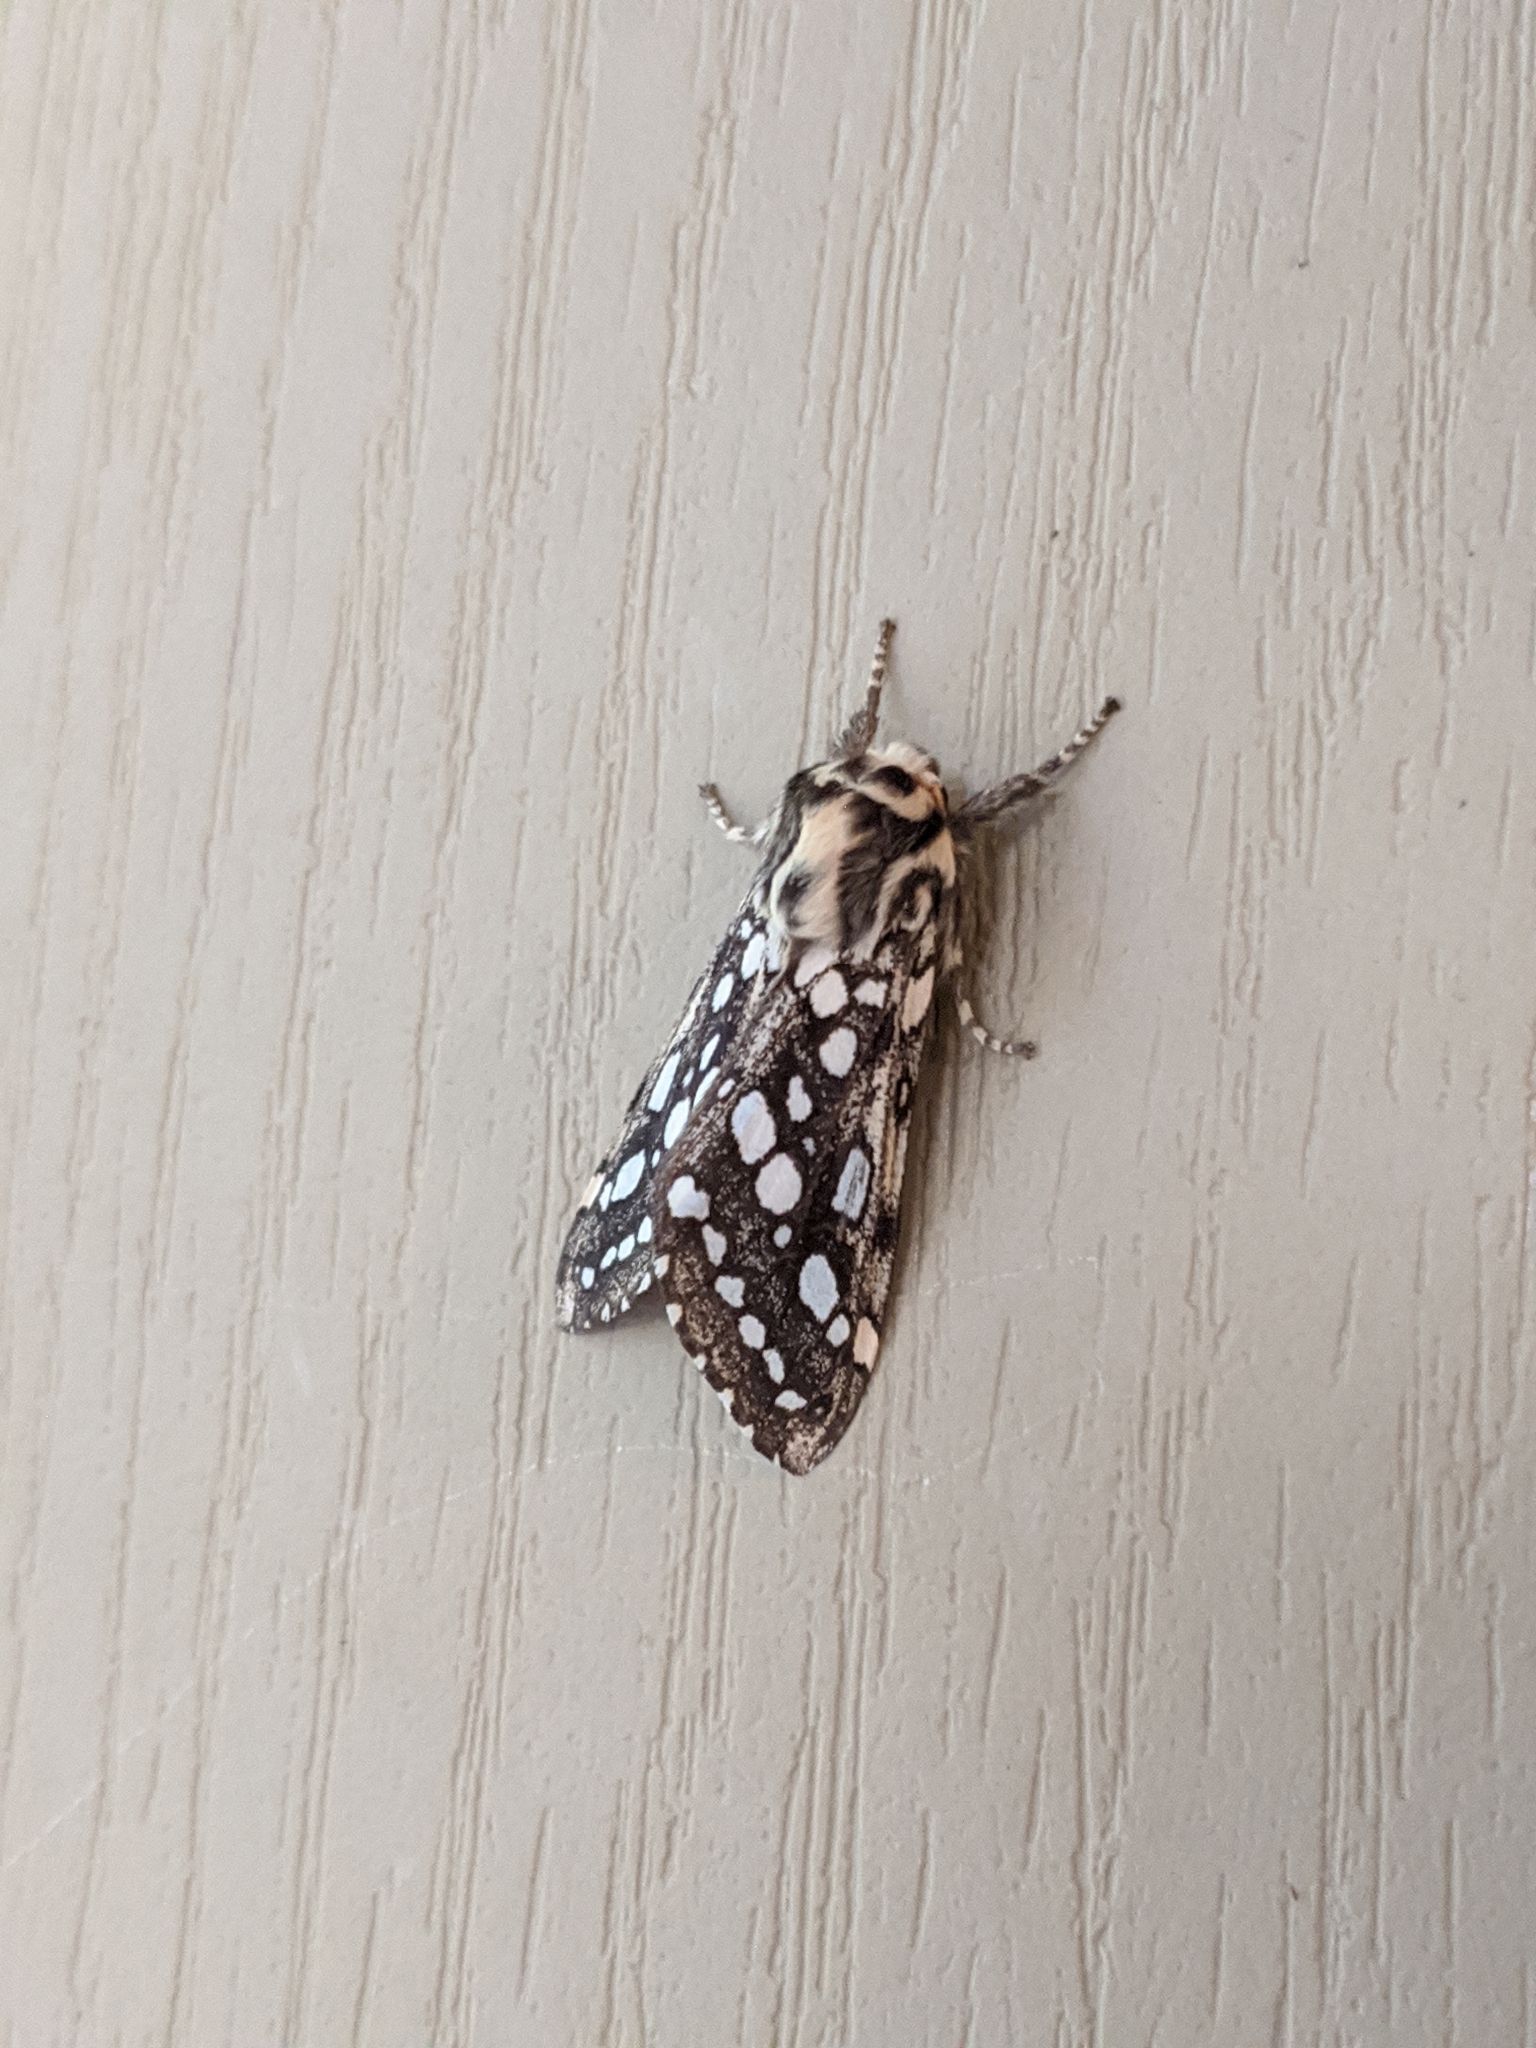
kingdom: Animalia
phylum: Arthropoda
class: Insecta
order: Lepidoptera
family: Erebidae
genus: Lophocampa
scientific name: Lophocampa argentata
